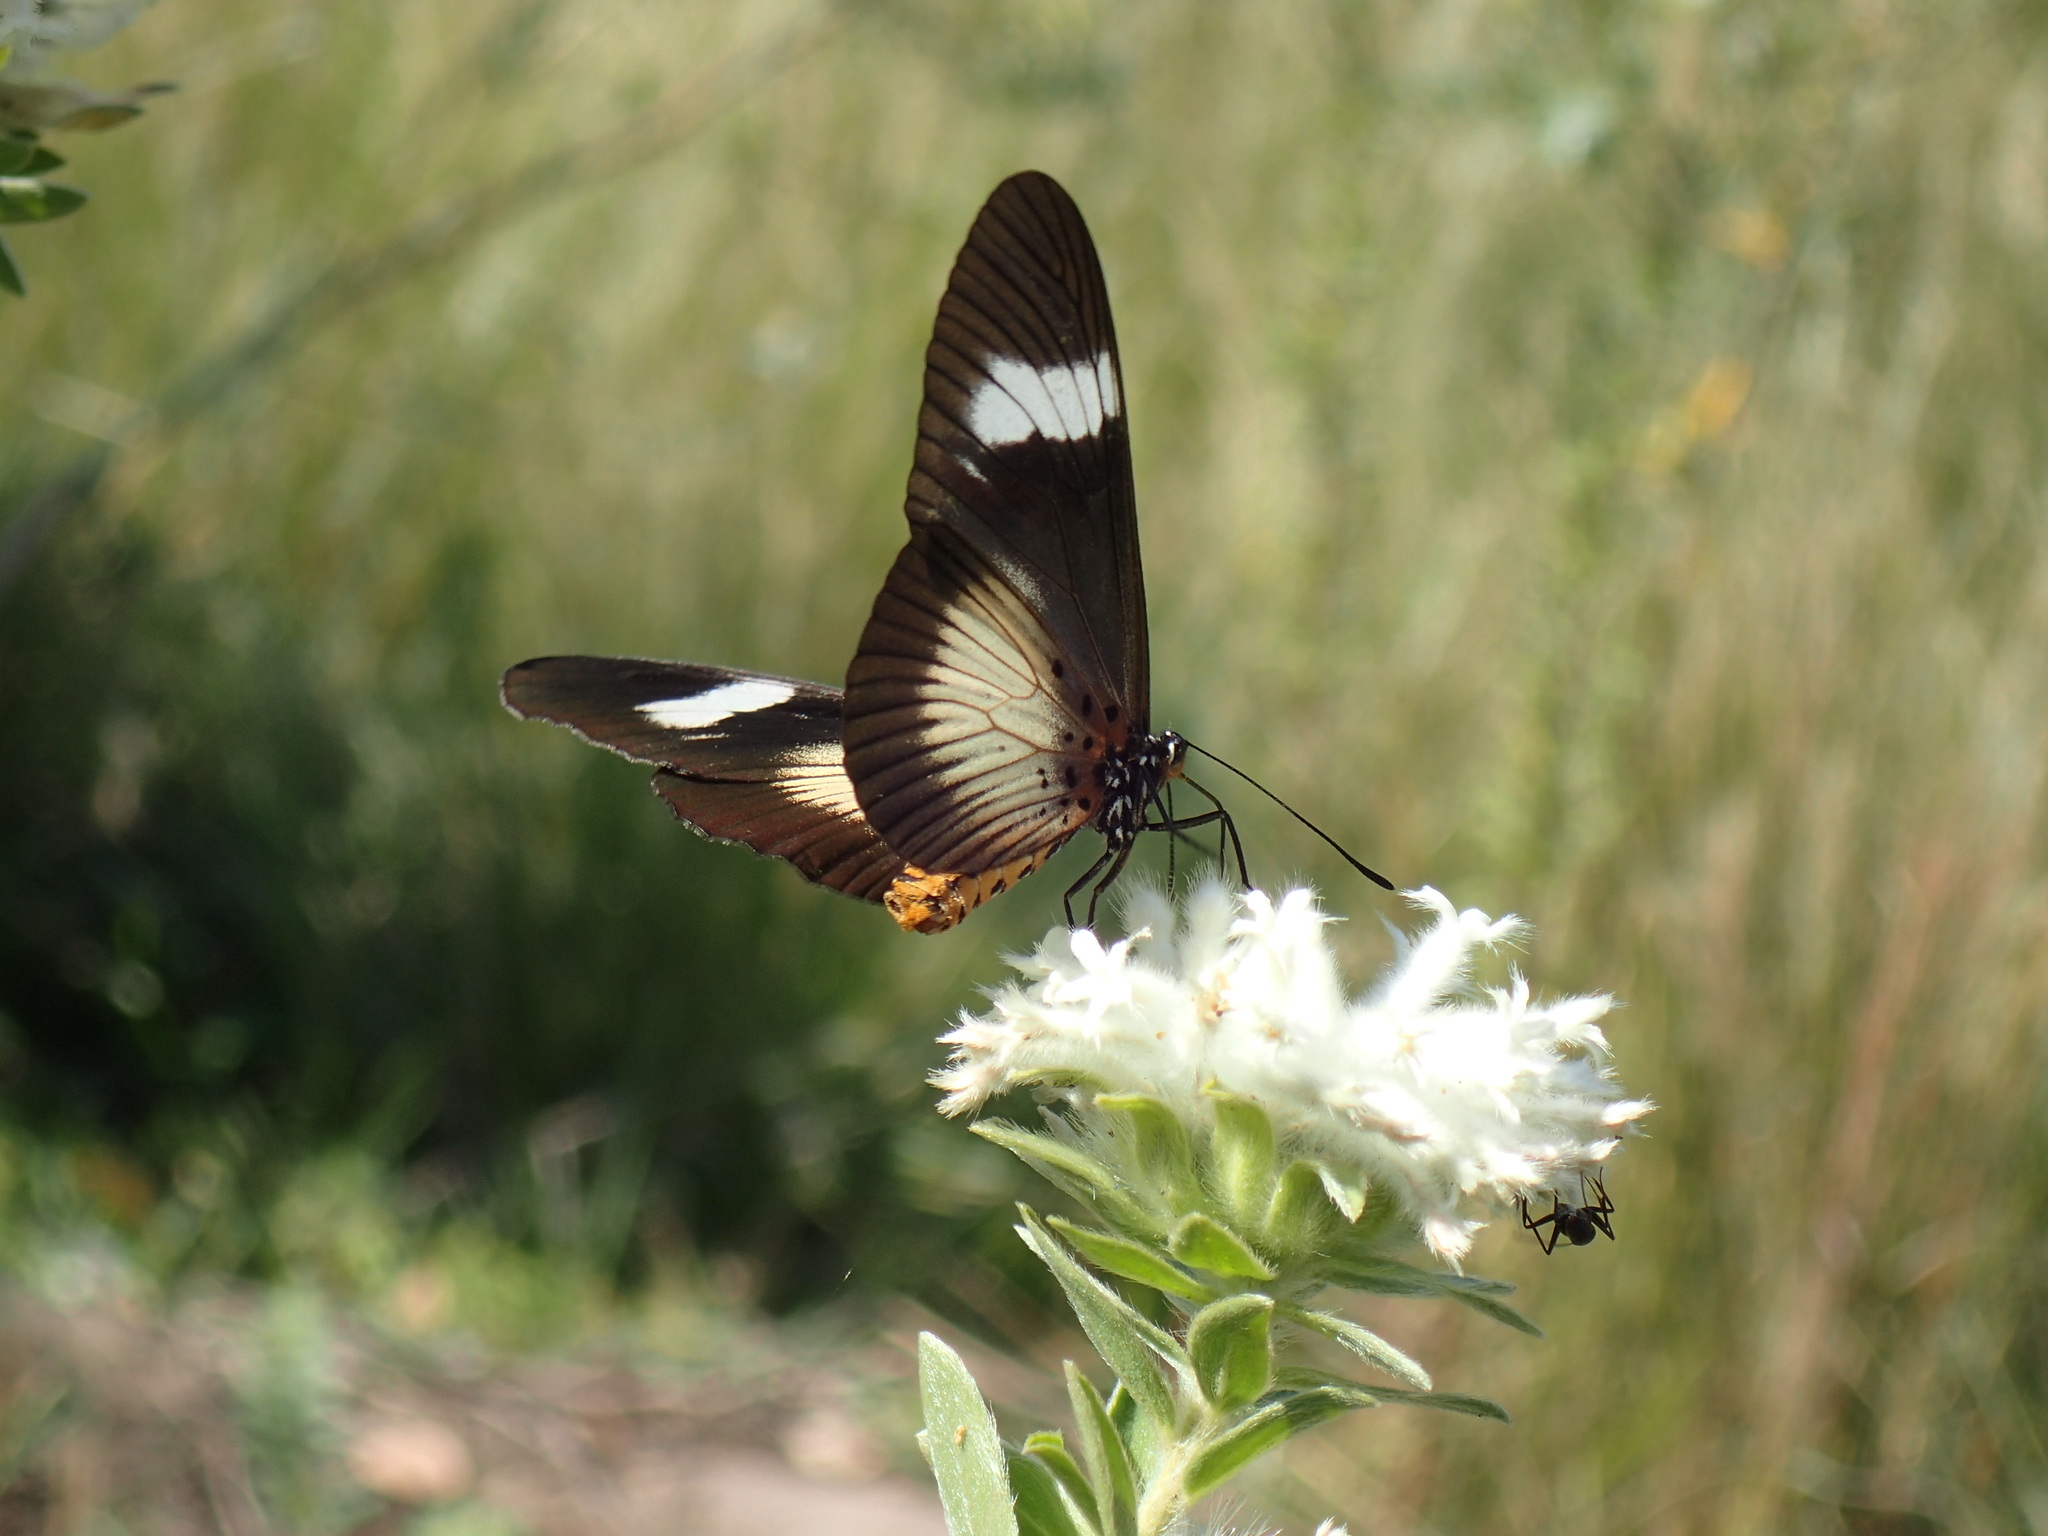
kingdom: Animalia
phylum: Arthropoda
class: Insecta
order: Lepidoptera
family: Nymphalidae
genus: Acraea
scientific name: Acraea esebria
